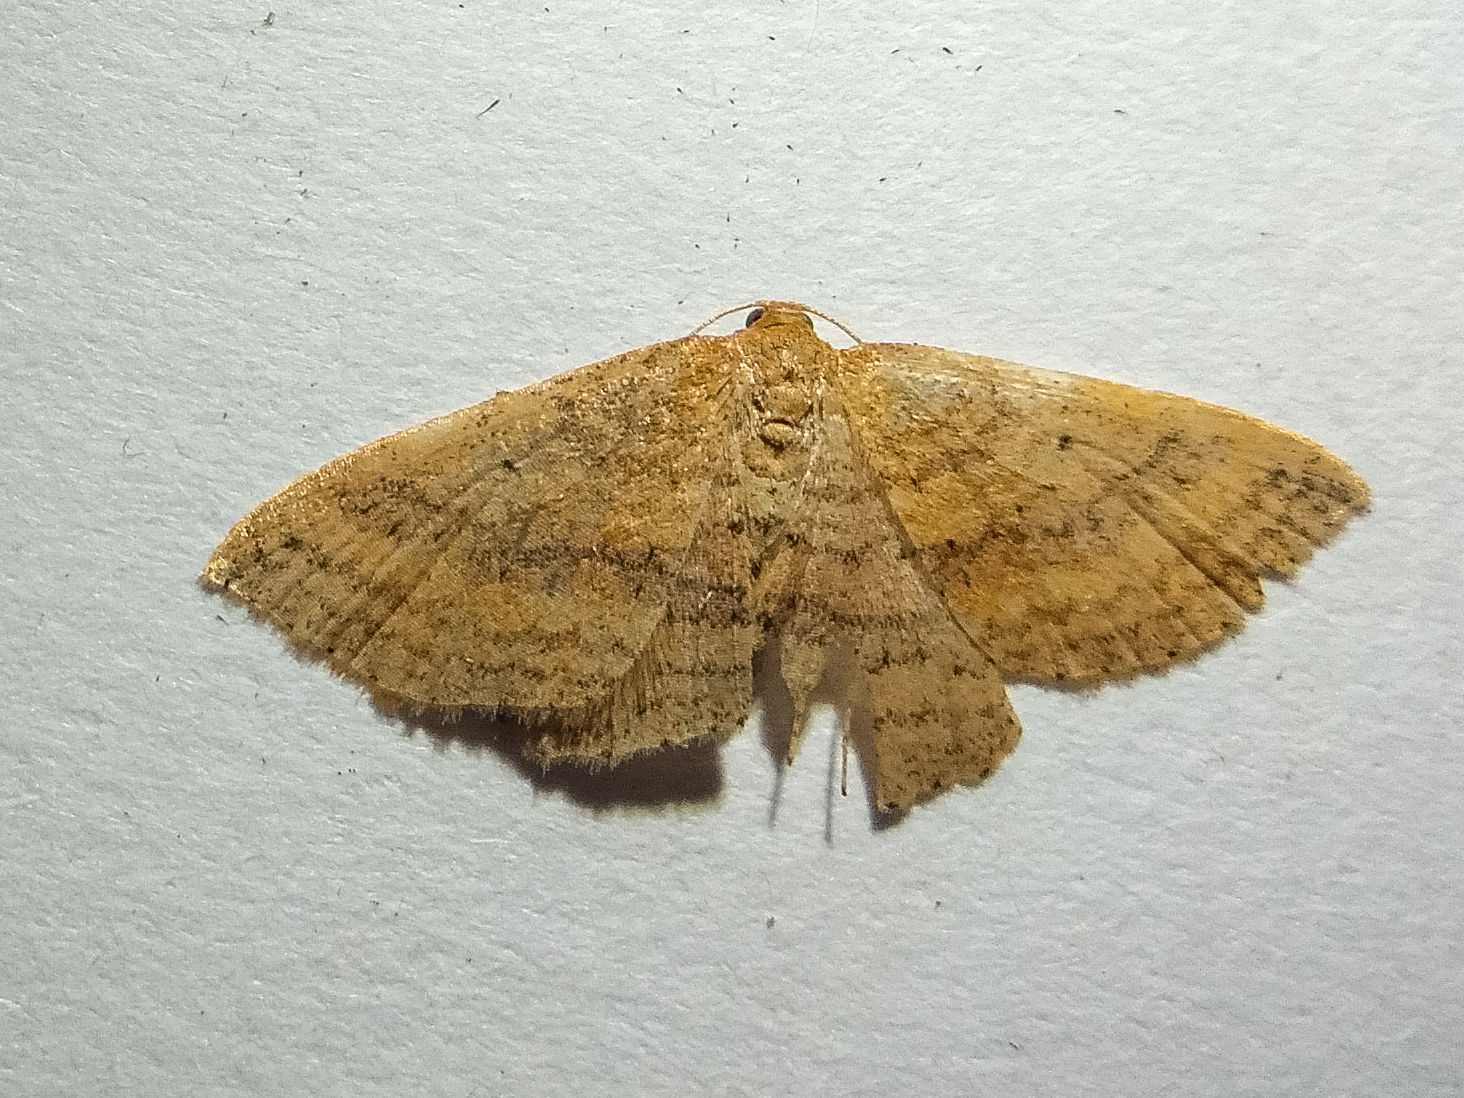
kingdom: Animalia
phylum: Arthropoda
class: Insecta
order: Lepidoptera
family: Geometridae
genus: Epicyme
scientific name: Epicyme rubropunctaria
